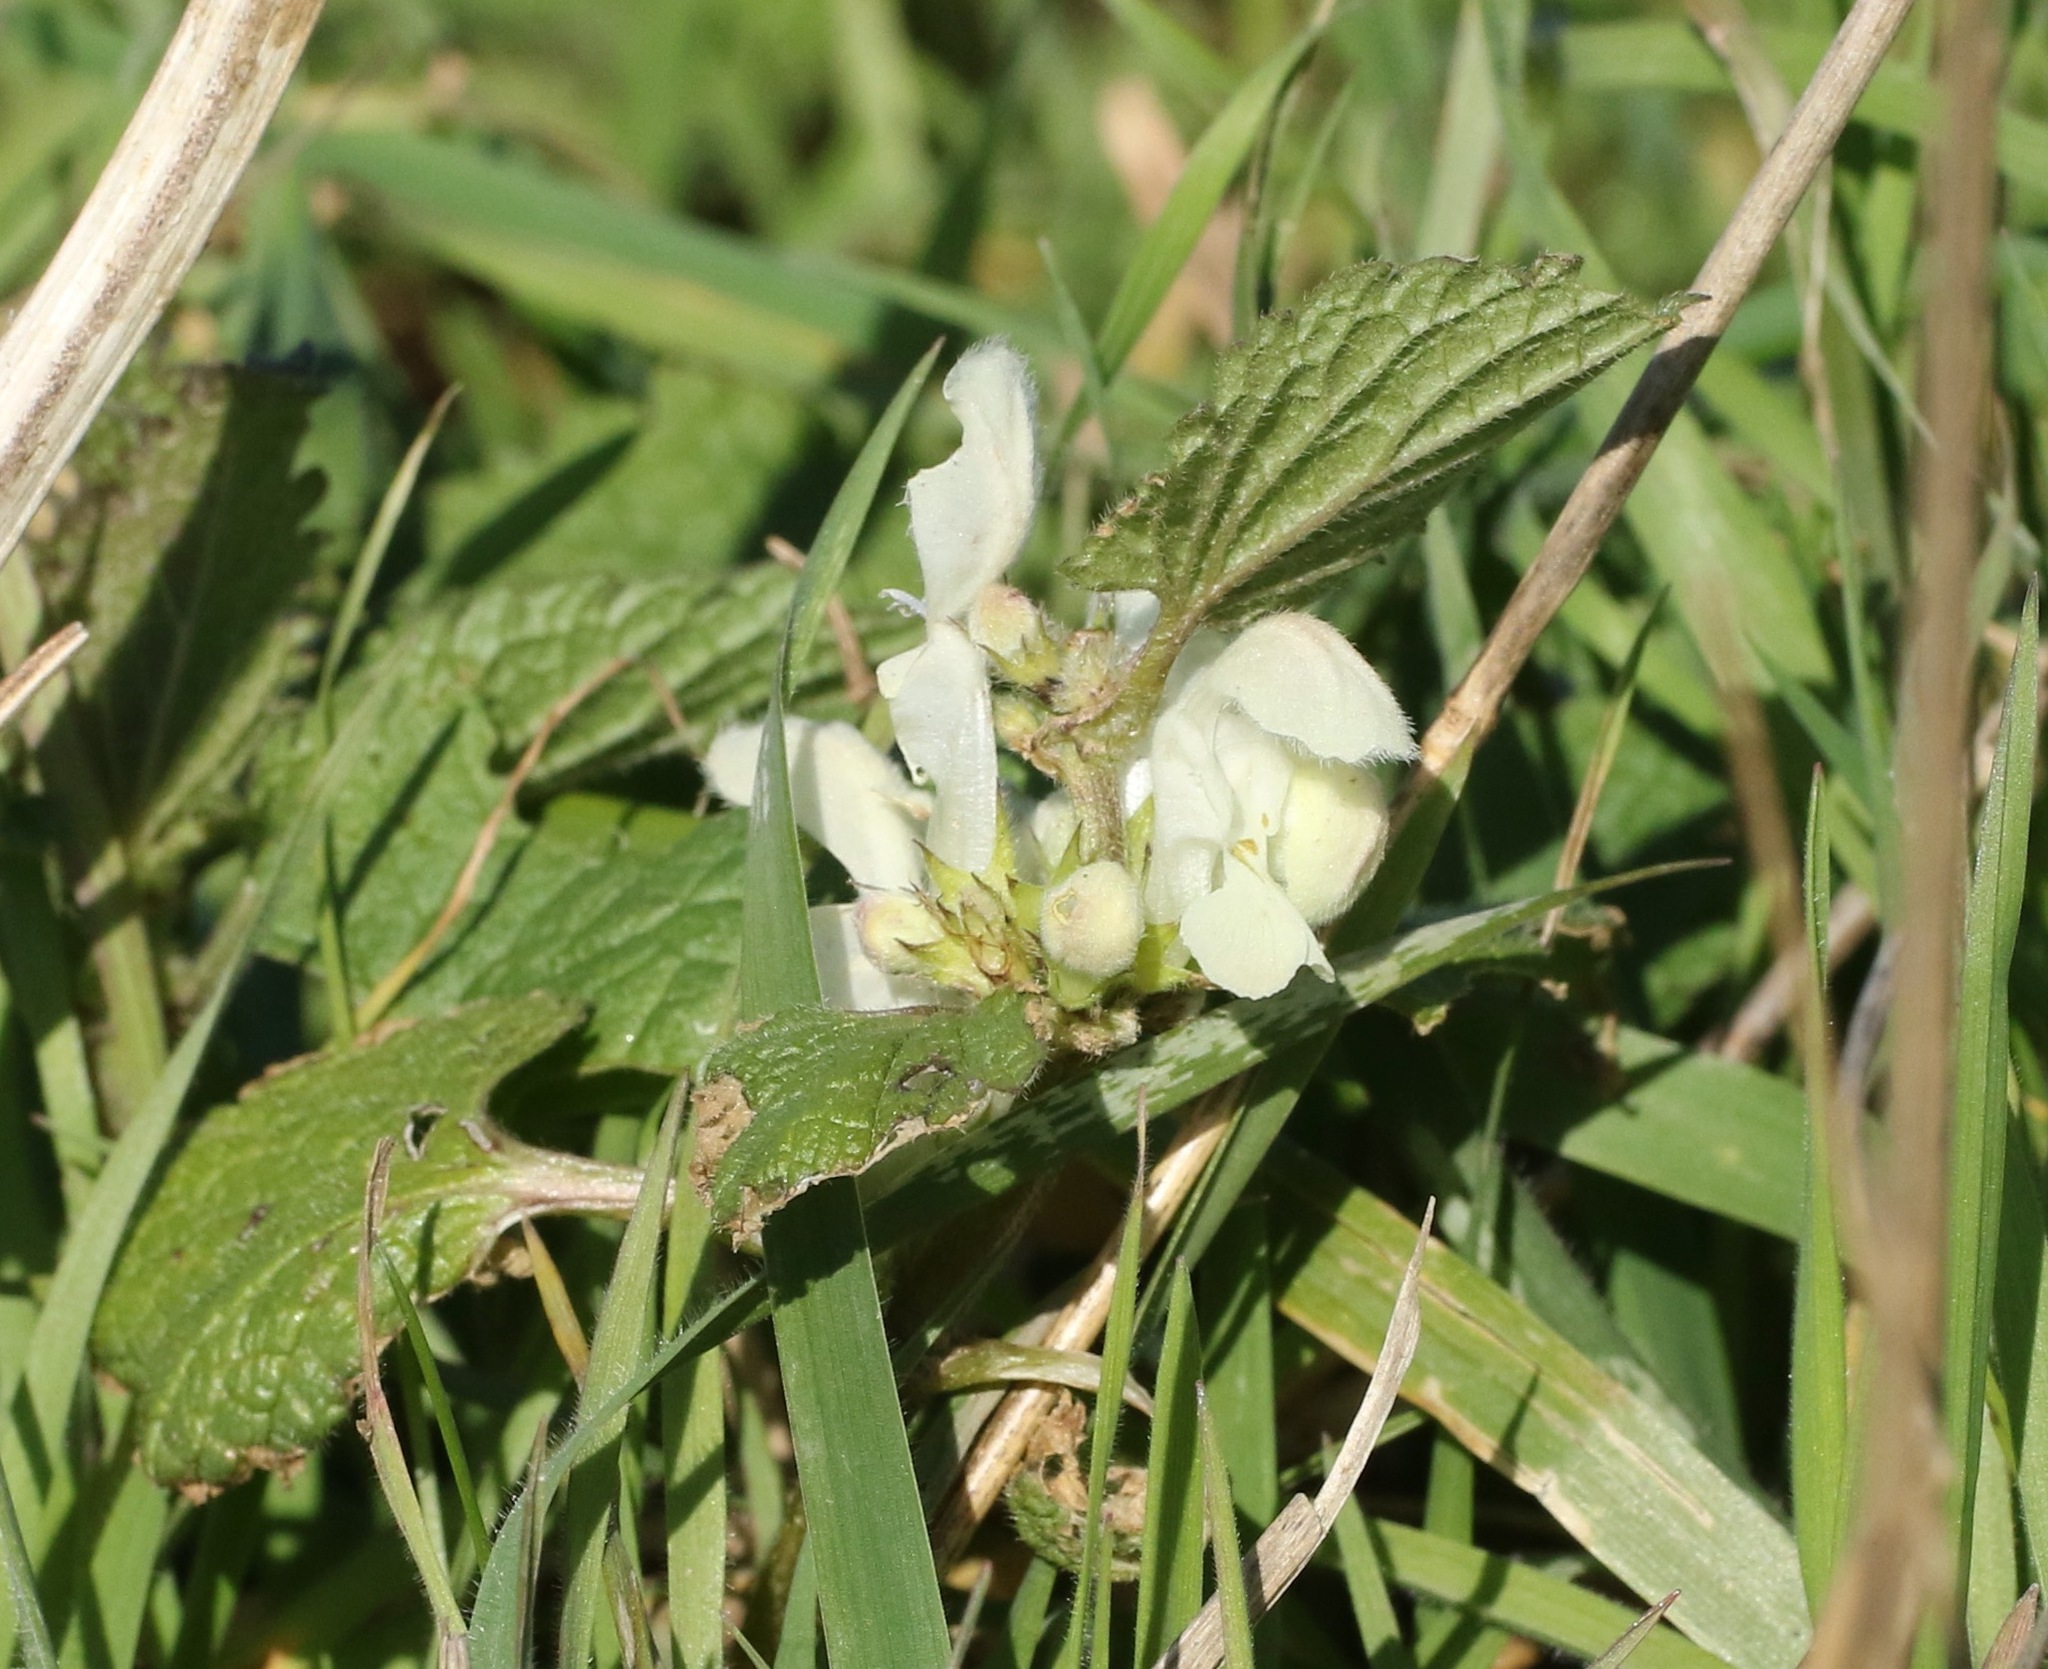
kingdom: Plantae
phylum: Tracheophyta
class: Magnoliopsida
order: Lamiales
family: Lamiaceae
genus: Lamium
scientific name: Lamium album
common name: White dead-nettle
